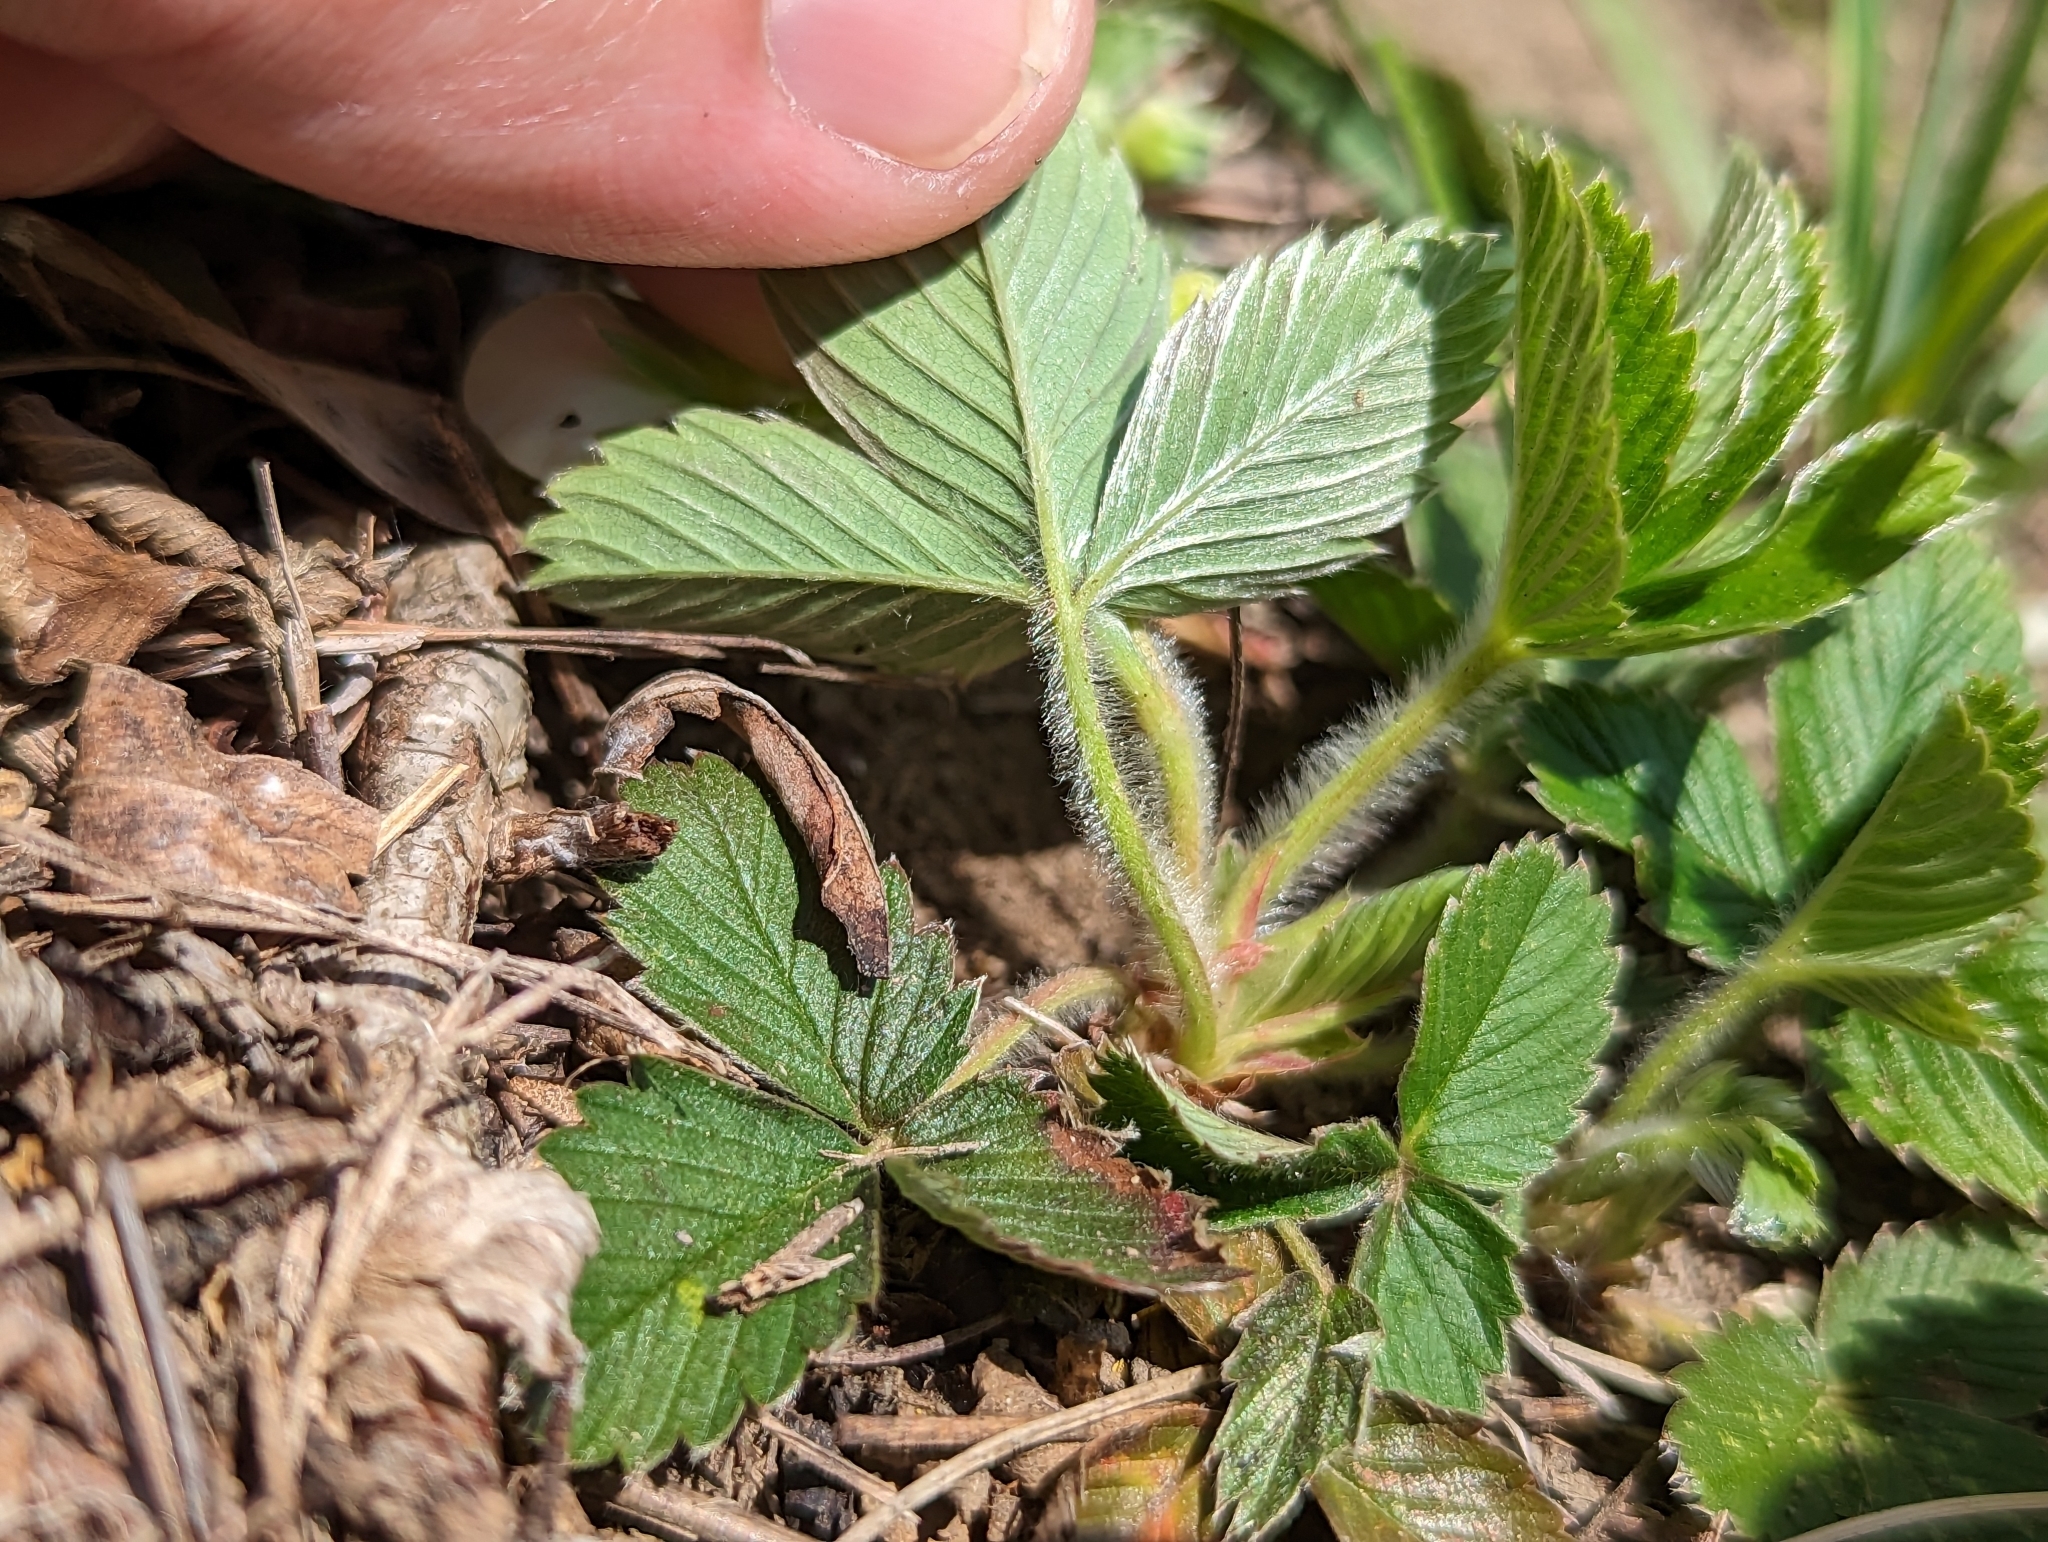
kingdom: Plantae
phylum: Tracheophyta
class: Magnoliopsida
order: Rosales
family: Rosaceae
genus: Fragaria
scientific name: Fragaria viridis
